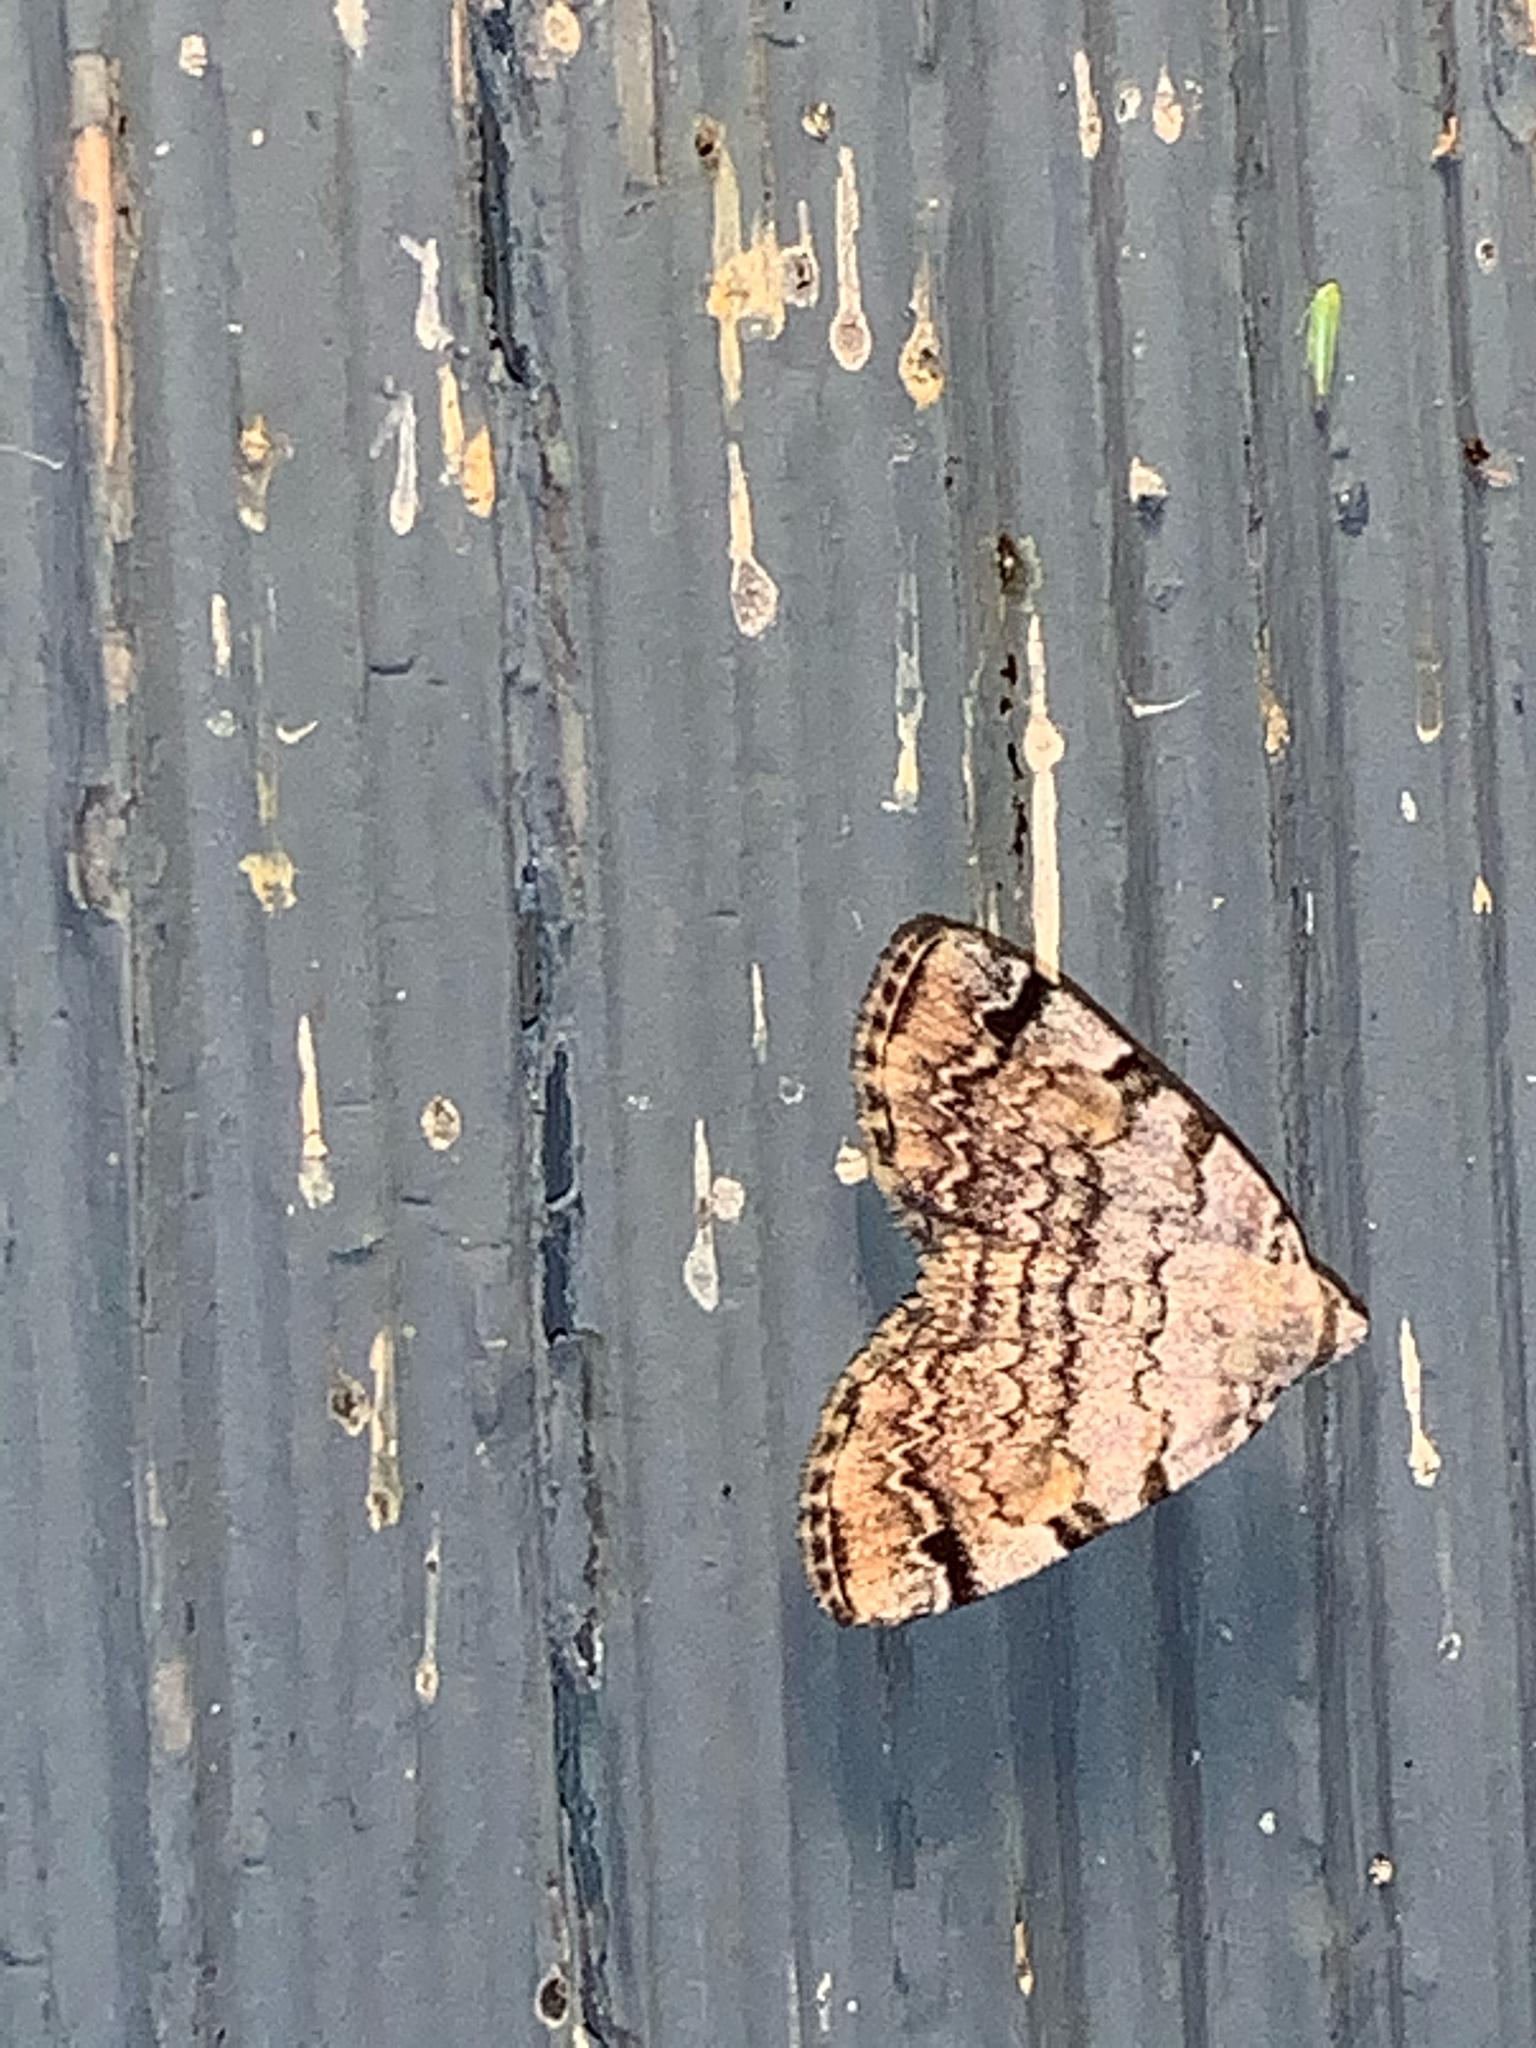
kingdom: Animalia
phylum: Arthropoda
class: Insecta
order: Lepidoptera
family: Erebidae
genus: Idia
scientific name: Idia americalis
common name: American idia moth
